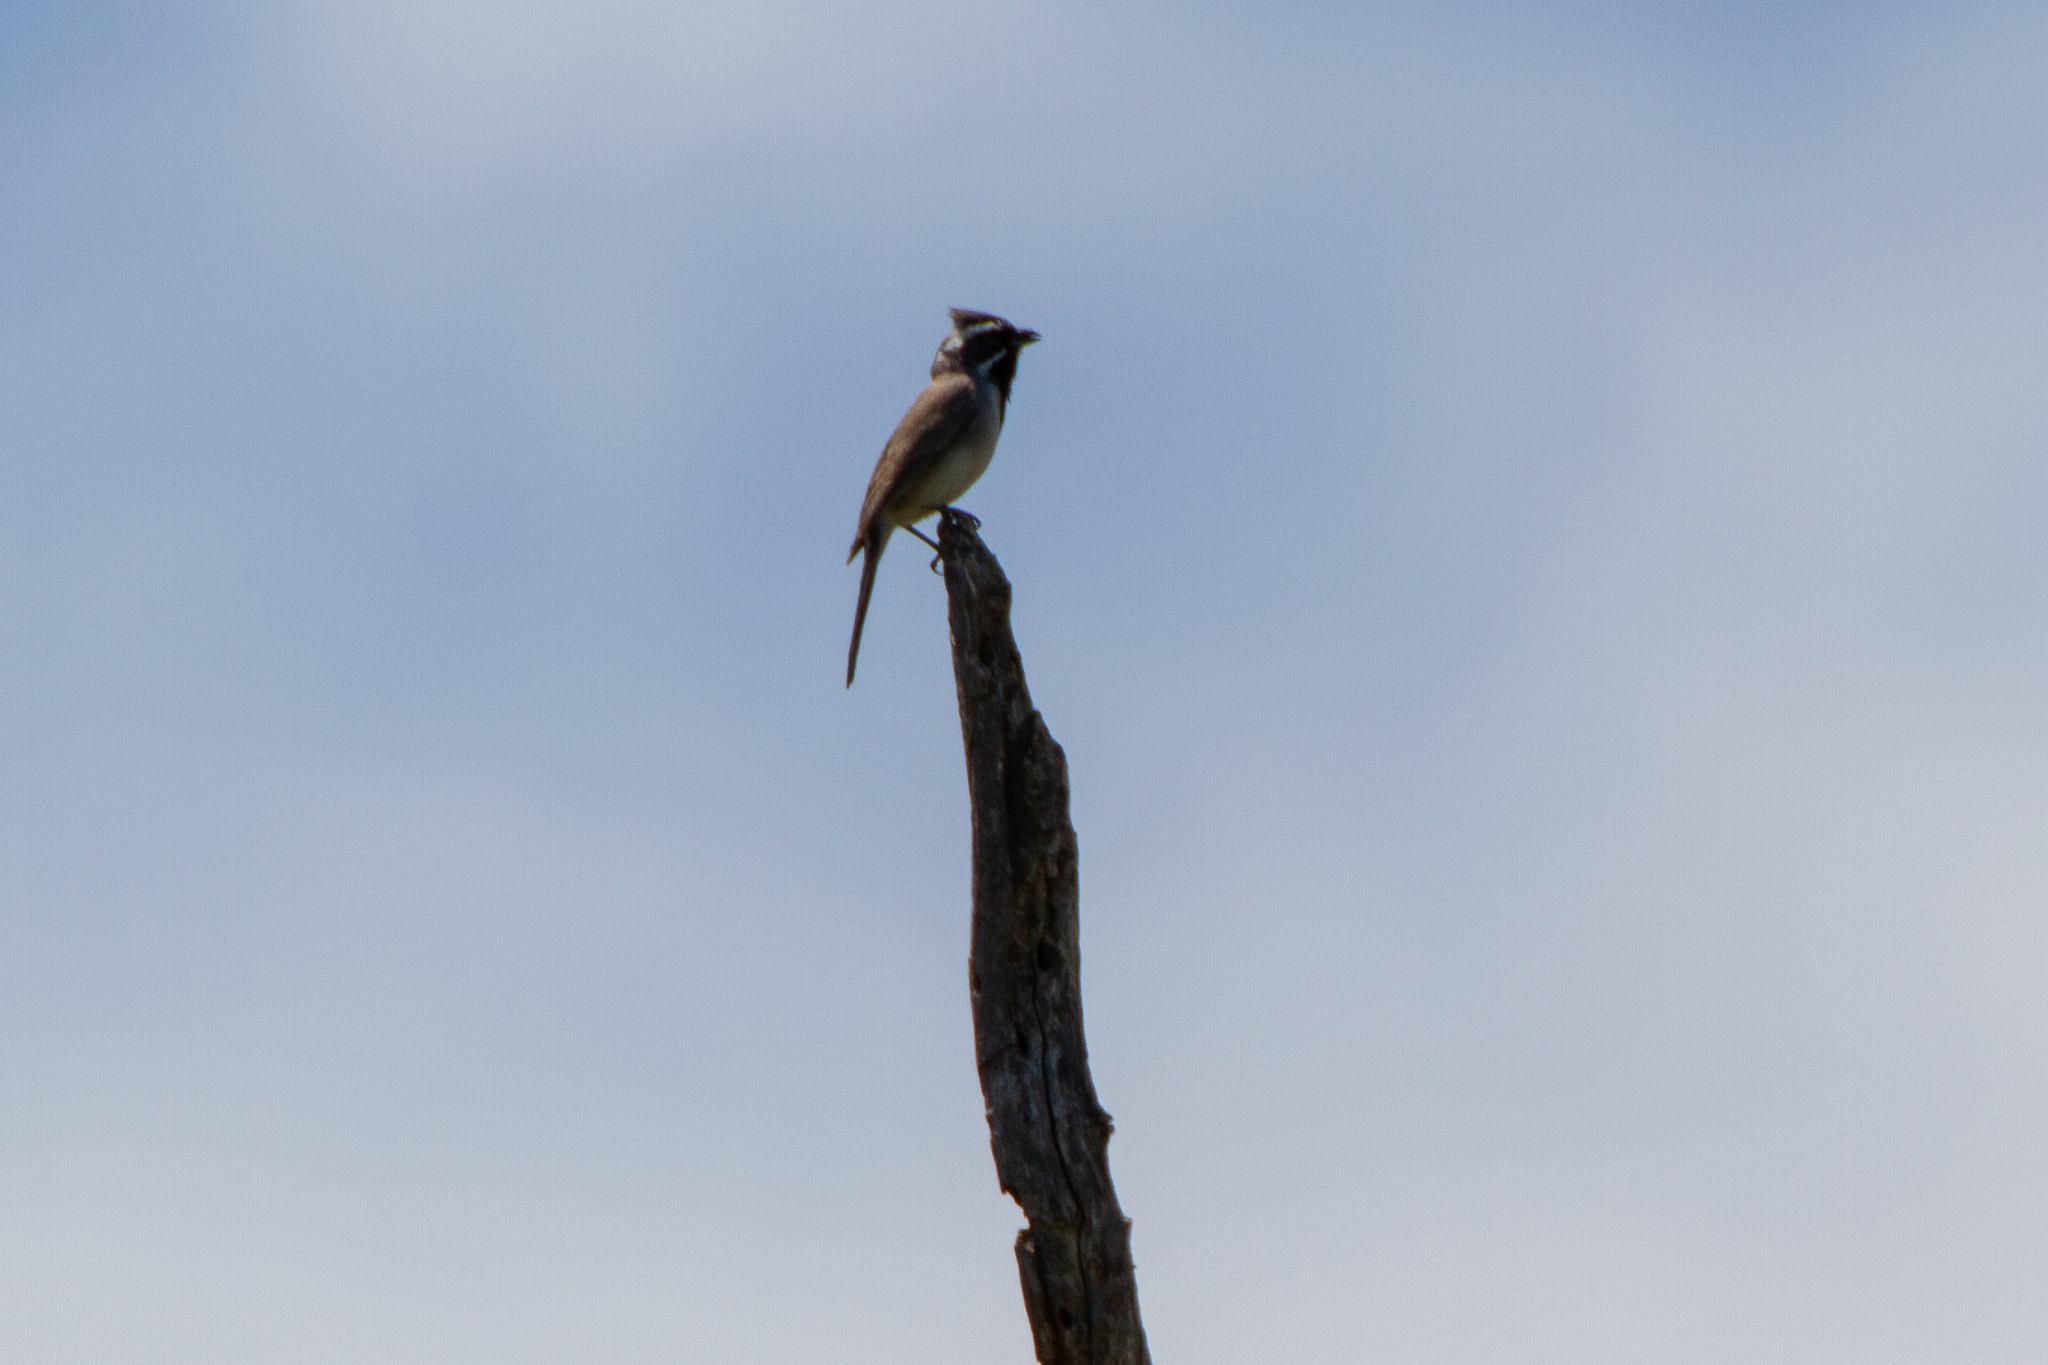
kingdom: Animalia
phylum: Chordata
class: Aves
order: Passeriformes
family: Passerellidae
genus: Amphispiza
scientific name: Amphispiza bilineata
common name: Black-throated sparrow
